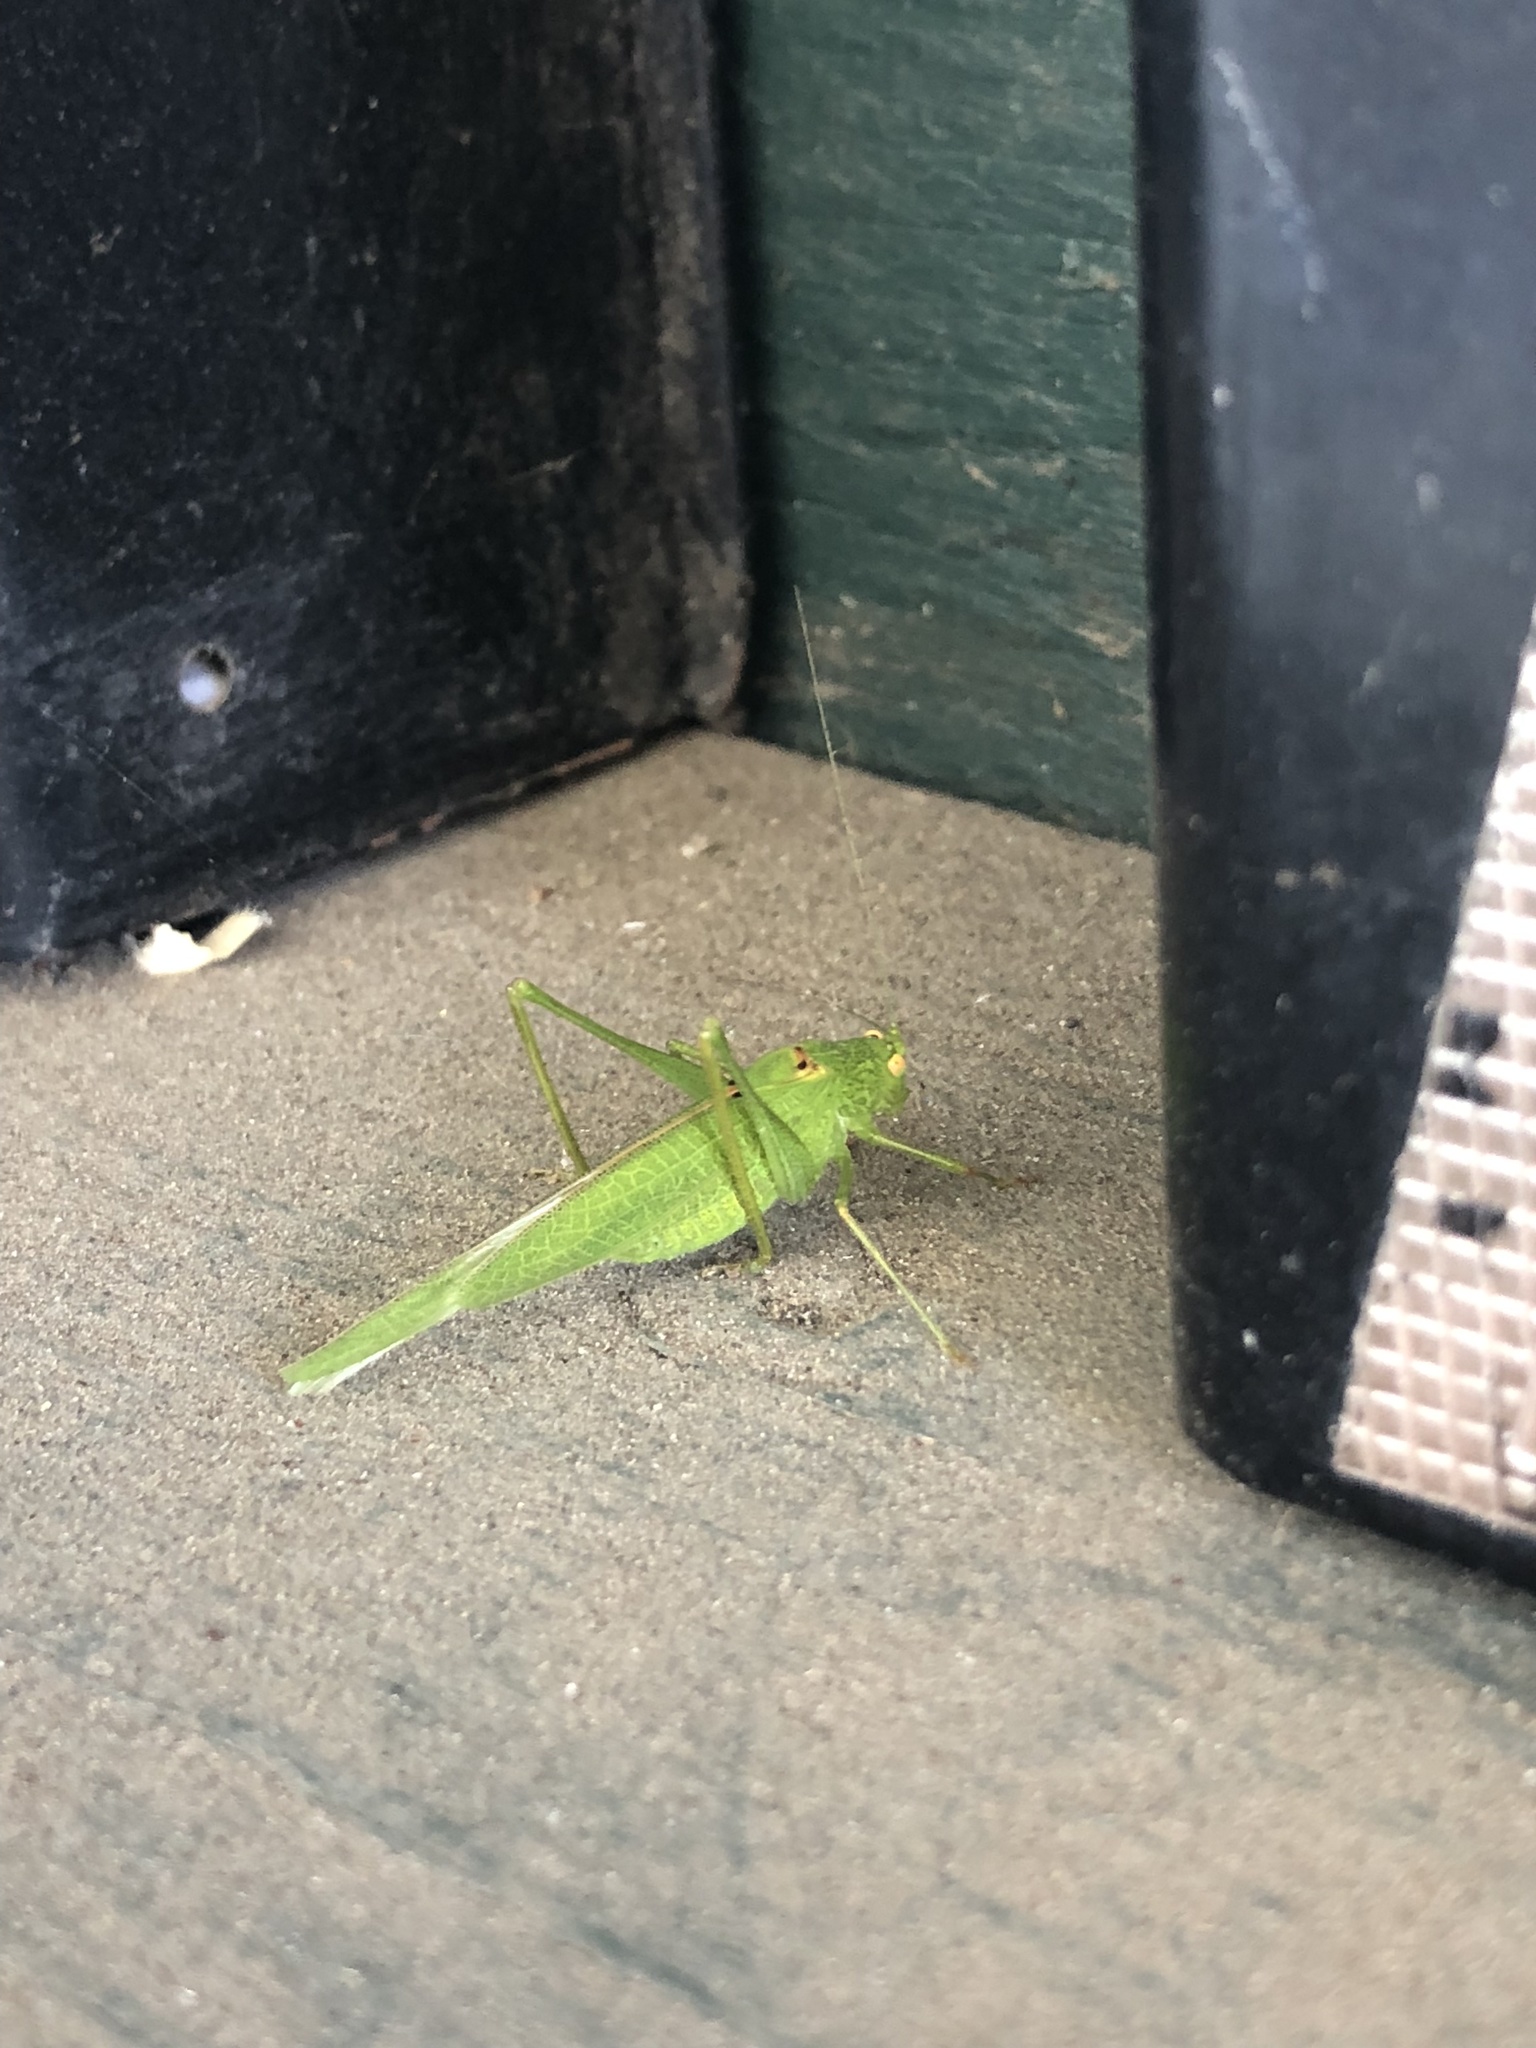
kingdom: Animalia
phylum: Arthropoda
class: Insecta
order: Orthoptera
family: Tettigoniidae
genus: Phaneroptera
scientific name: Phaneroptera nana
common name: Southern sickle bush-cricket
